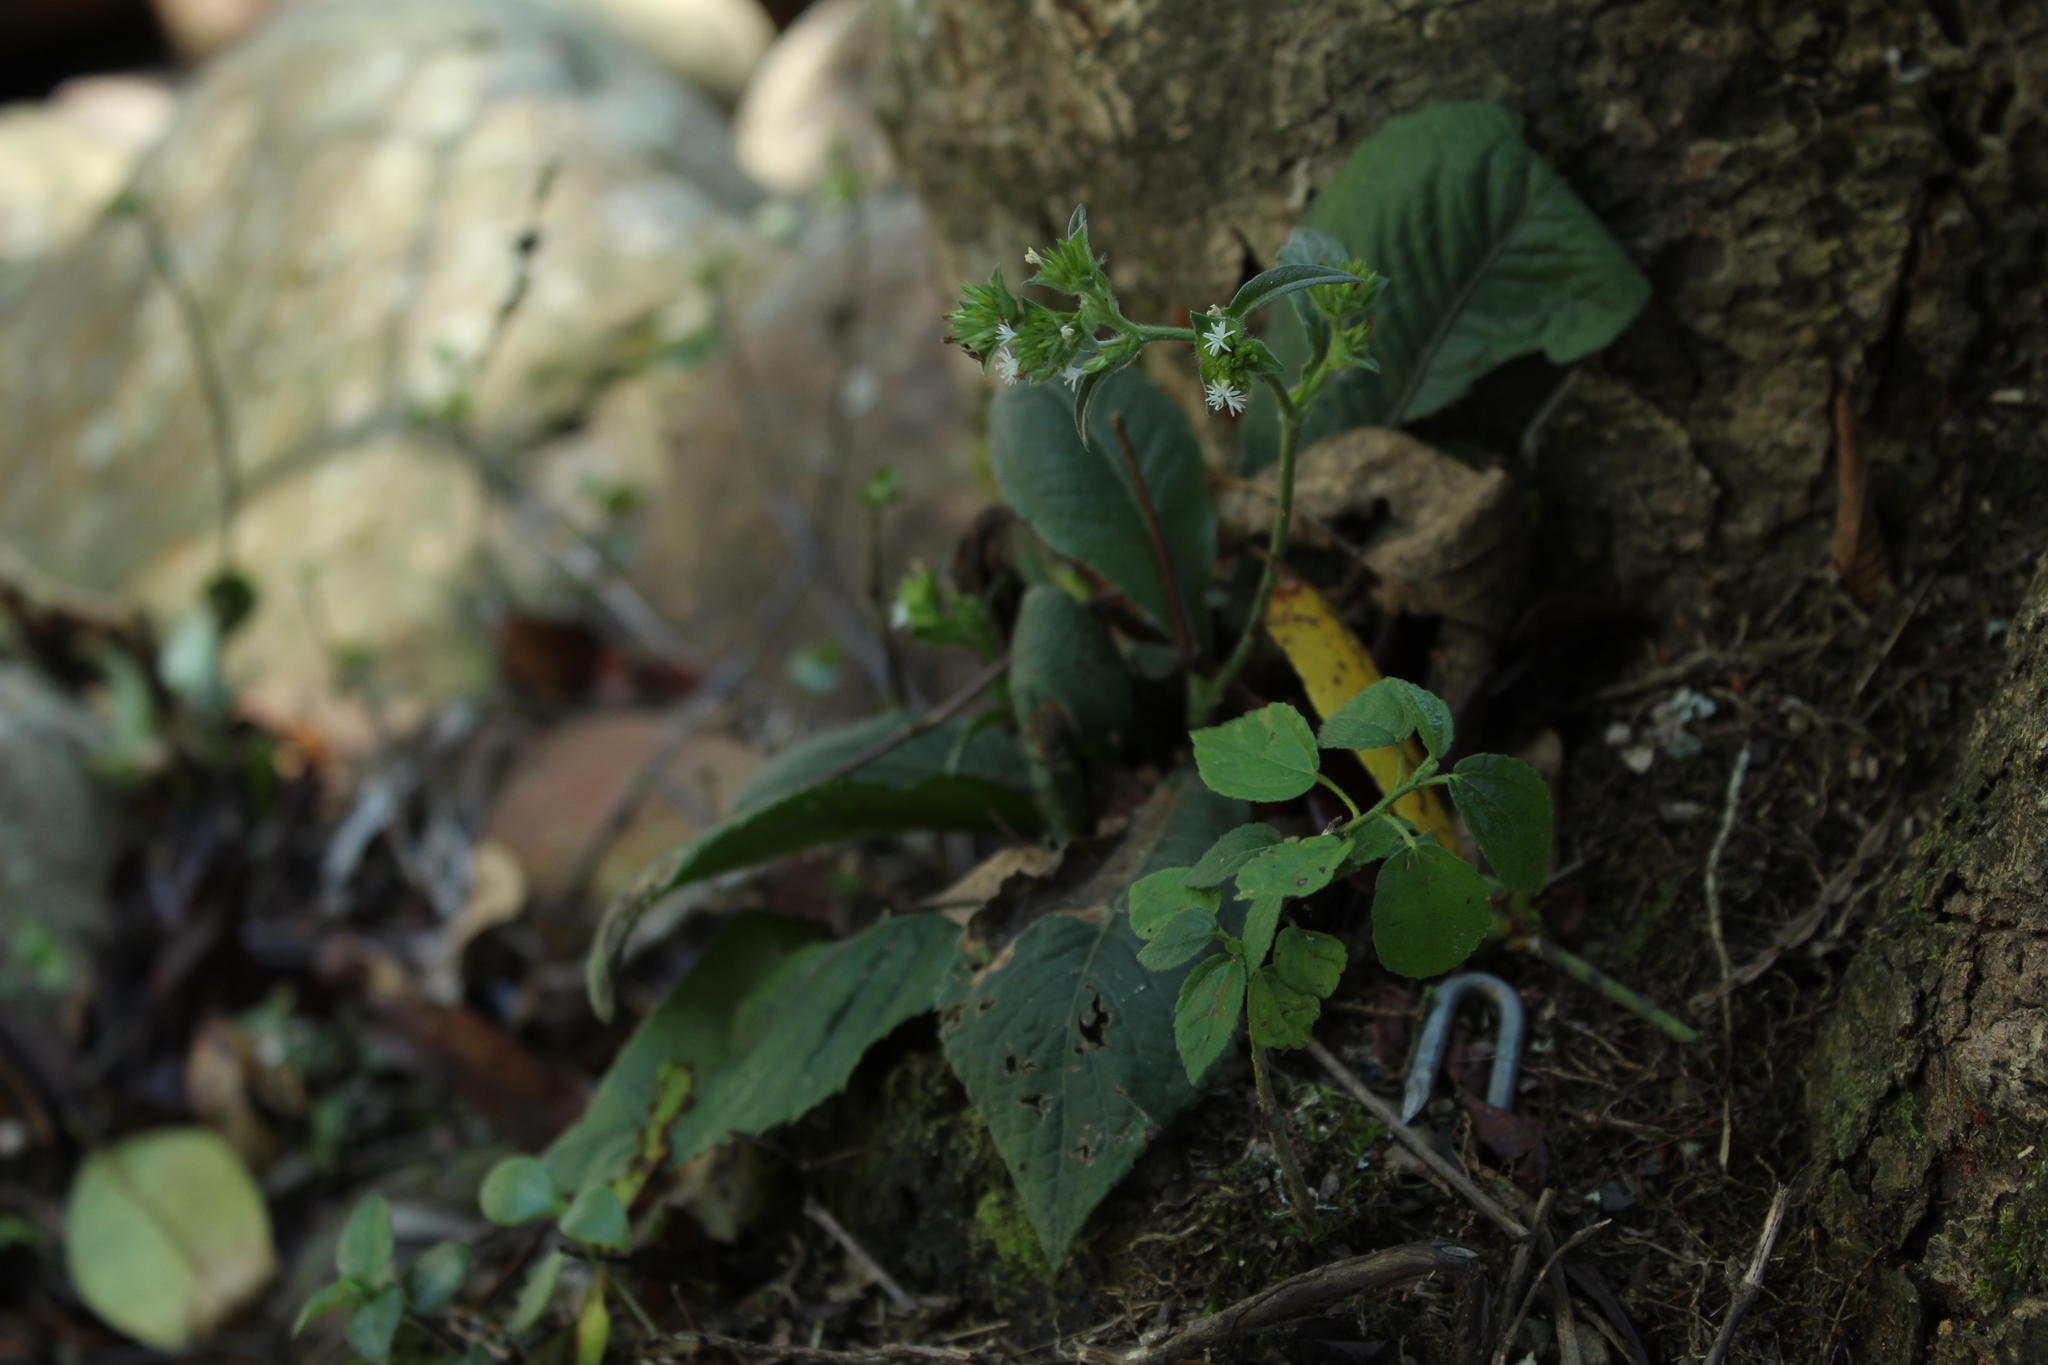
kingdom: Plantae
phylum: Tracheophyta
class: Magnoliopsida
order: Asterales
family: Asteraceae
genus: Elephantopus
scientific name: Elephantopus mollis
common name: Soft elephantsfoot
